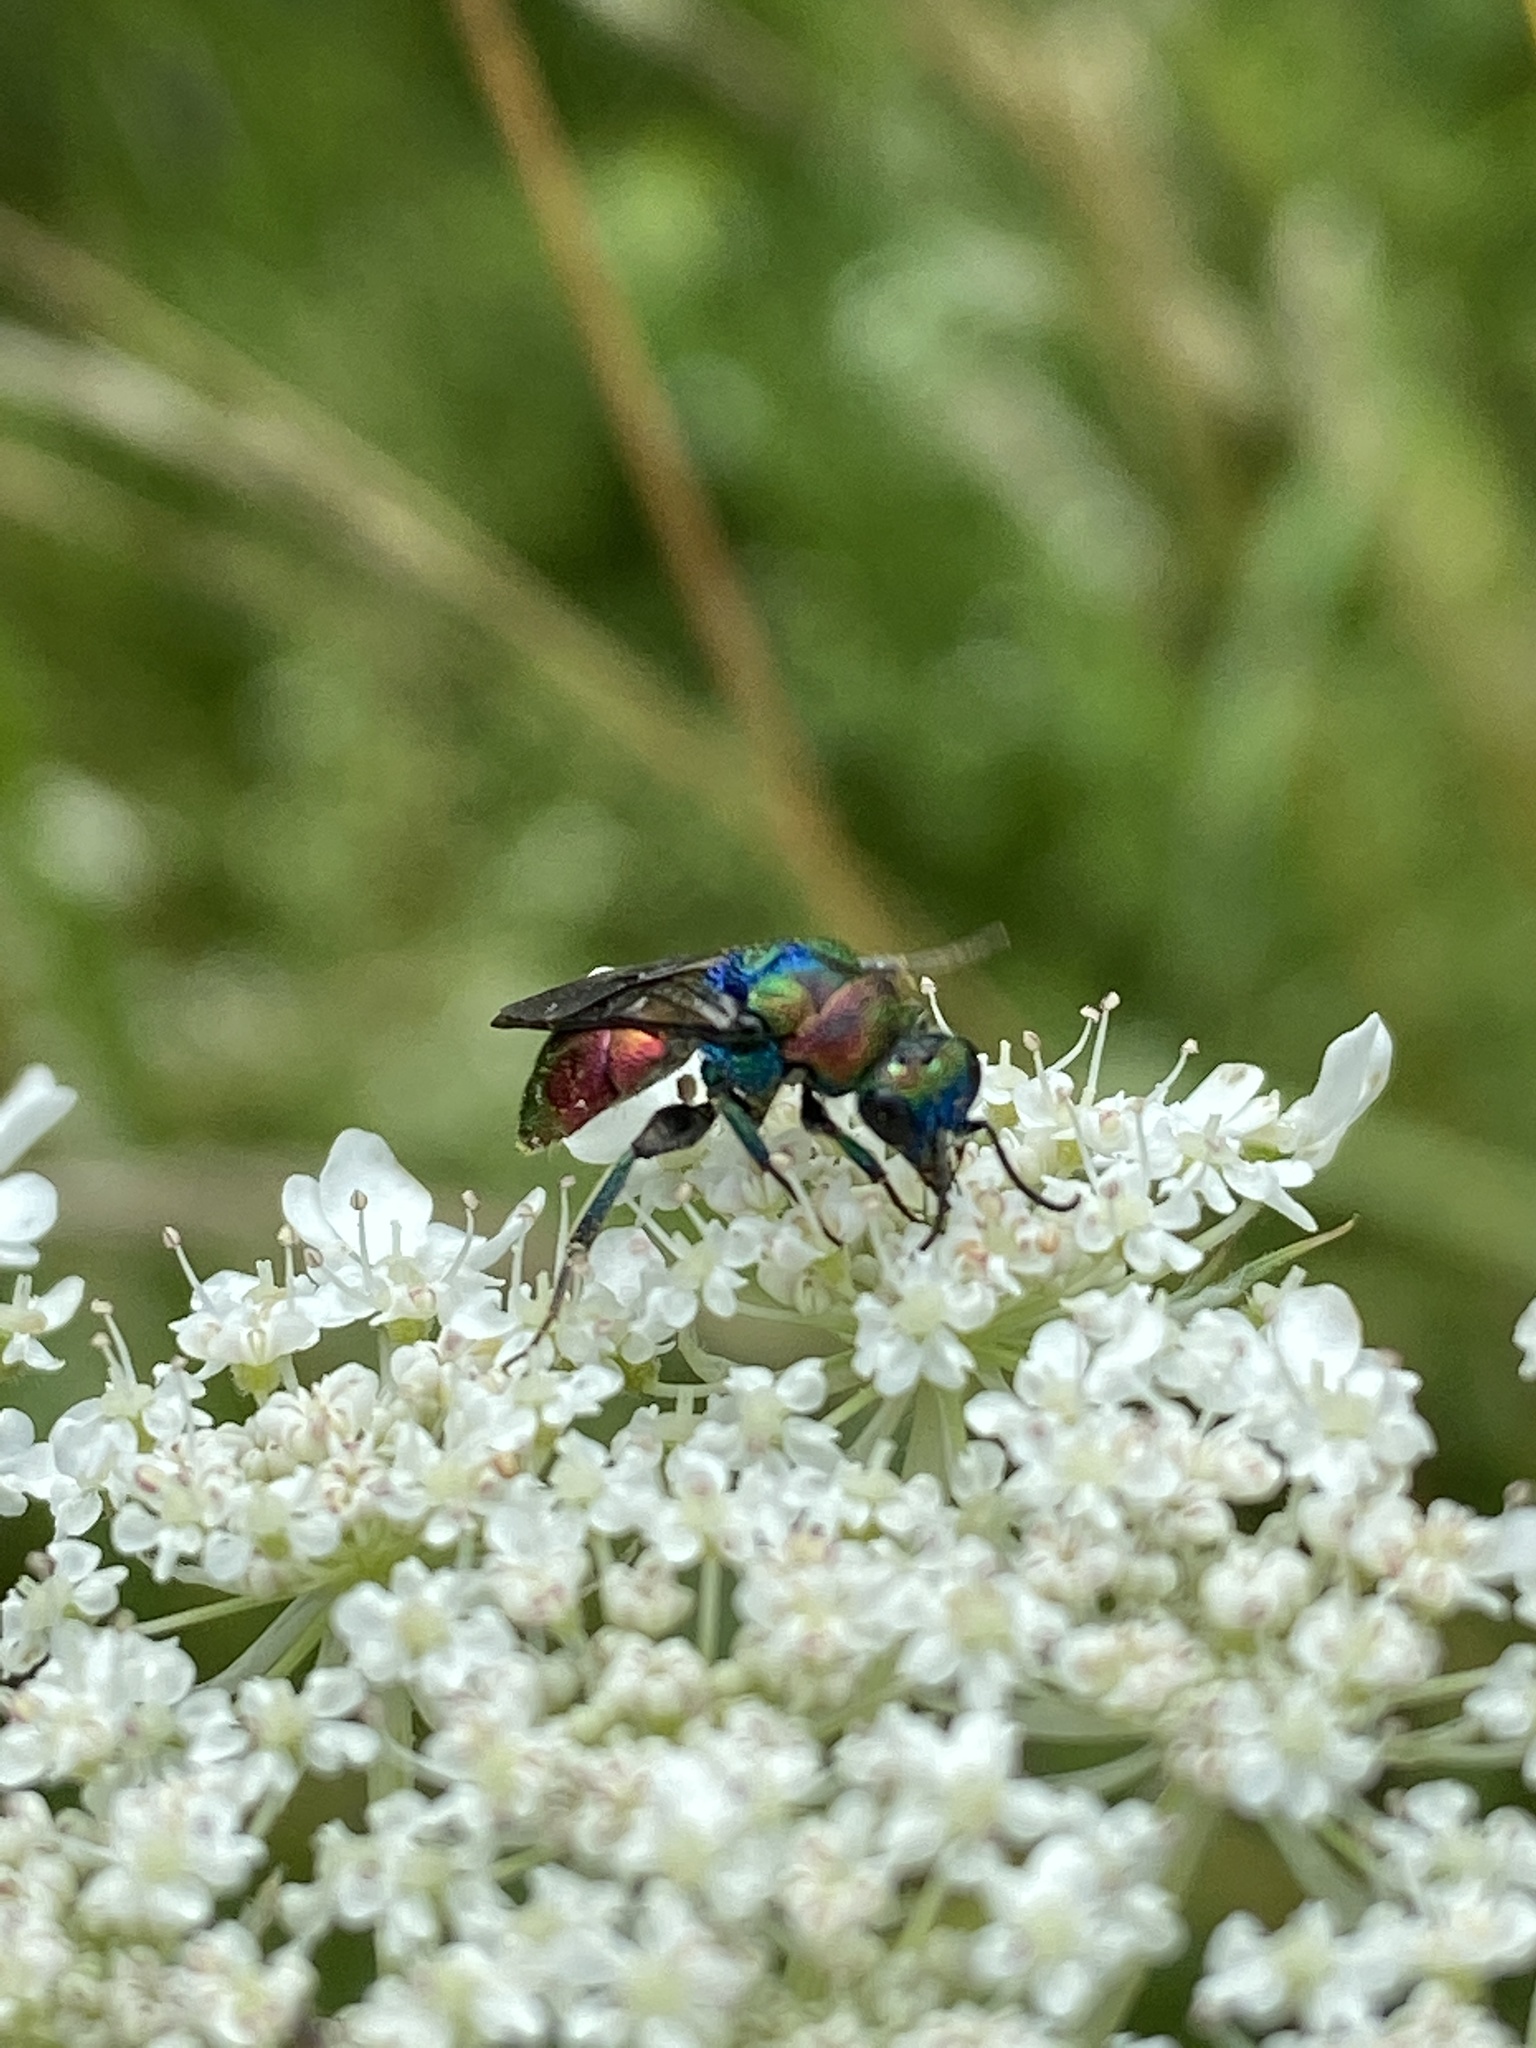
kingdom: Animalia
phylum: Arthropoda
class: Insecta
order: Hymenoptera
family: Chrysididae
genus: Hedychrum
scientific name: Hedychrum rutilans
